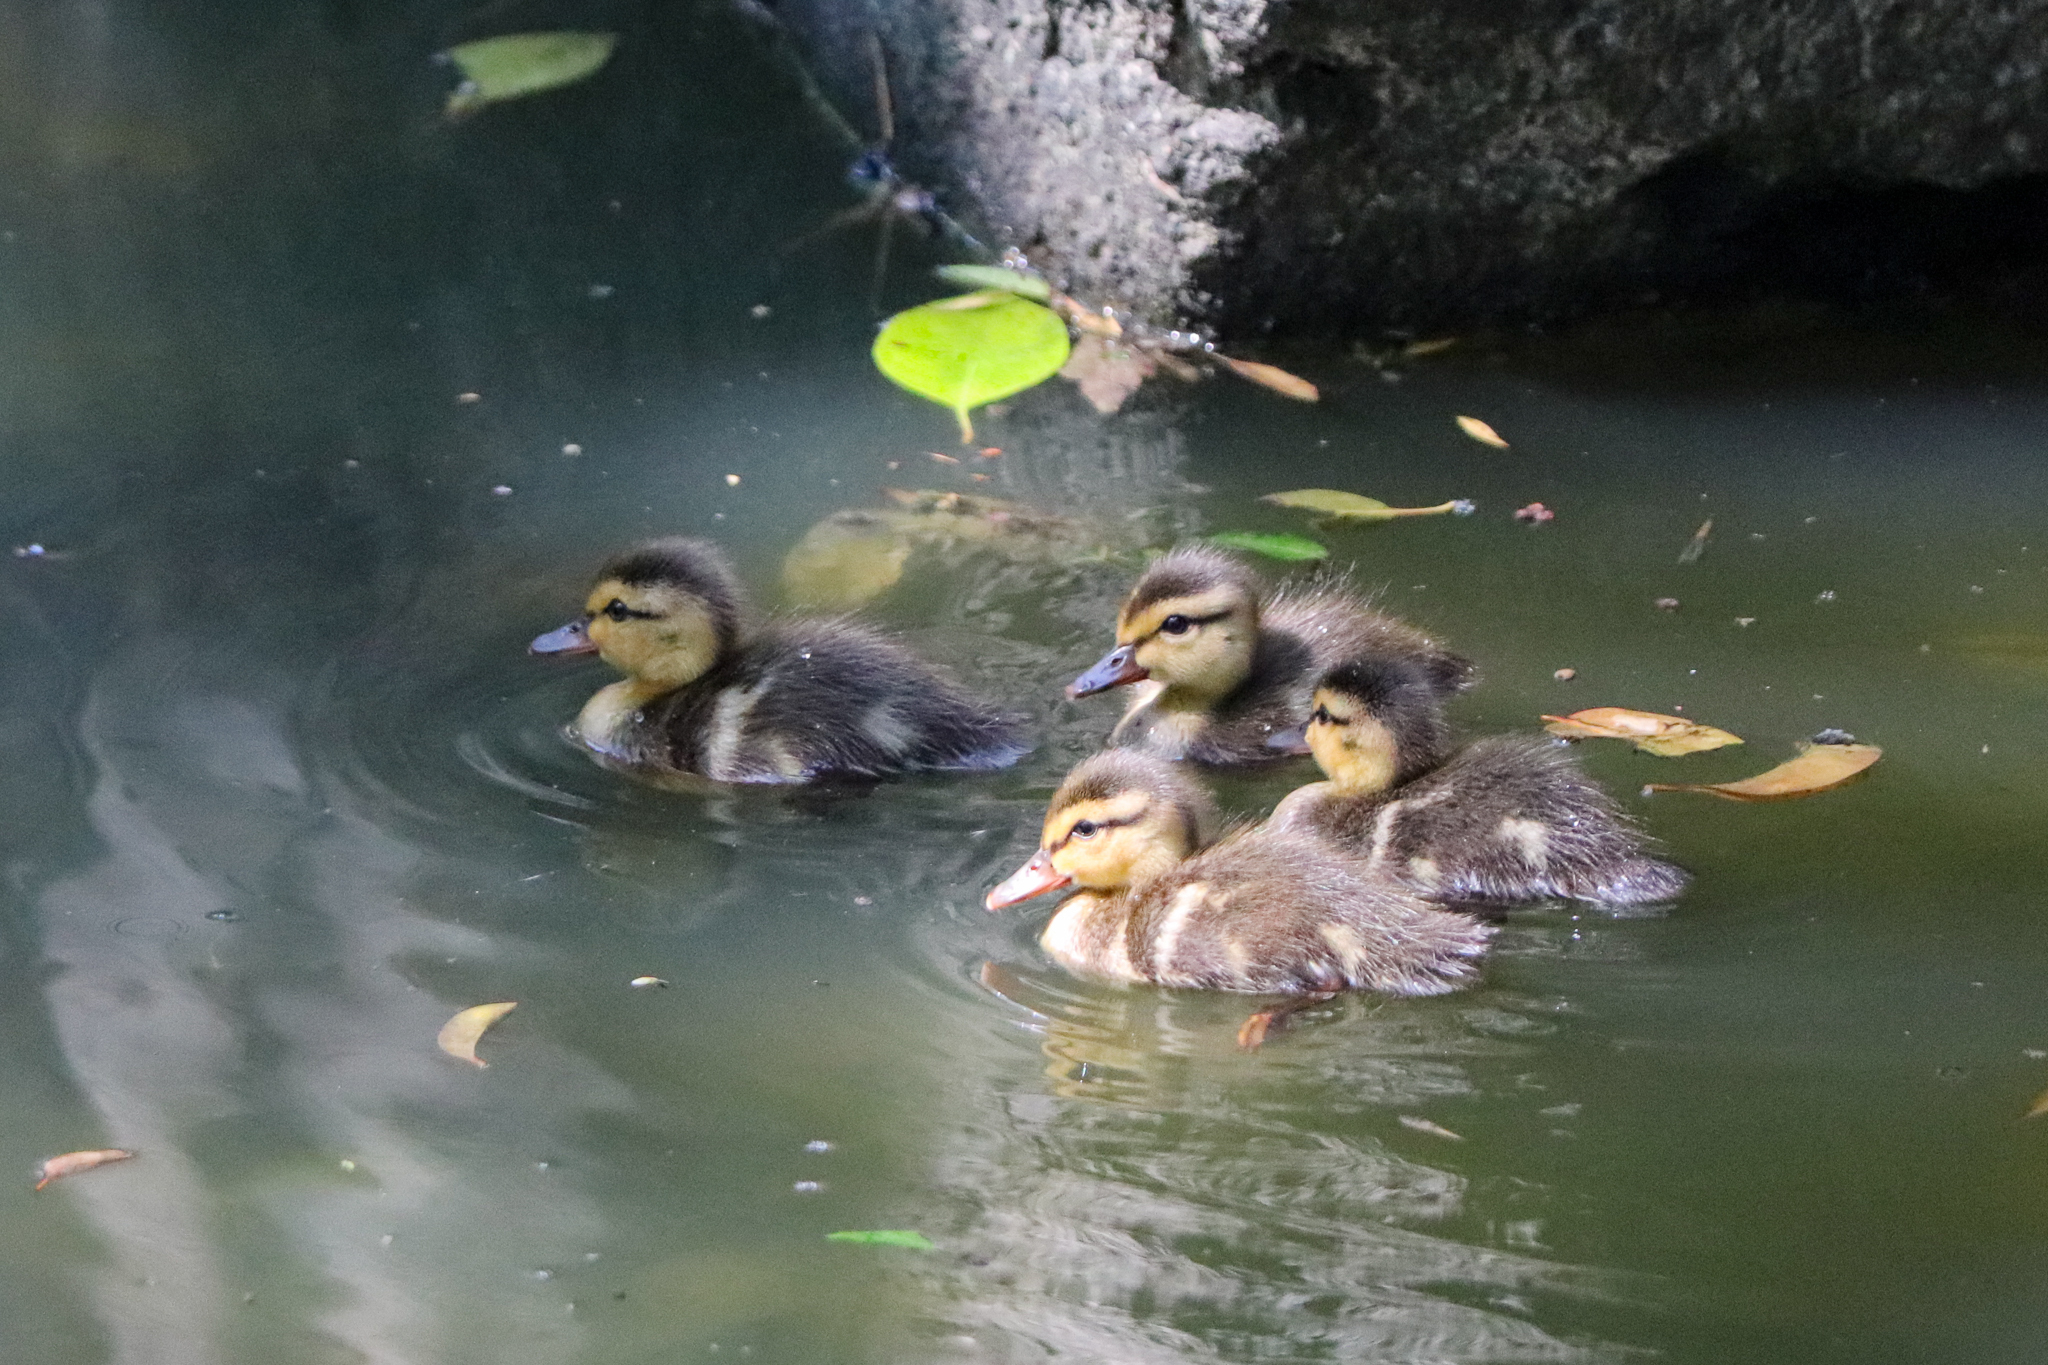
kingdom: Animalia
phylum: Chordata
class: Aves
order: Anseriformes
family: Anatidae
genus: Anas
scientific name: Anas diazi
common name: Mexican duck
